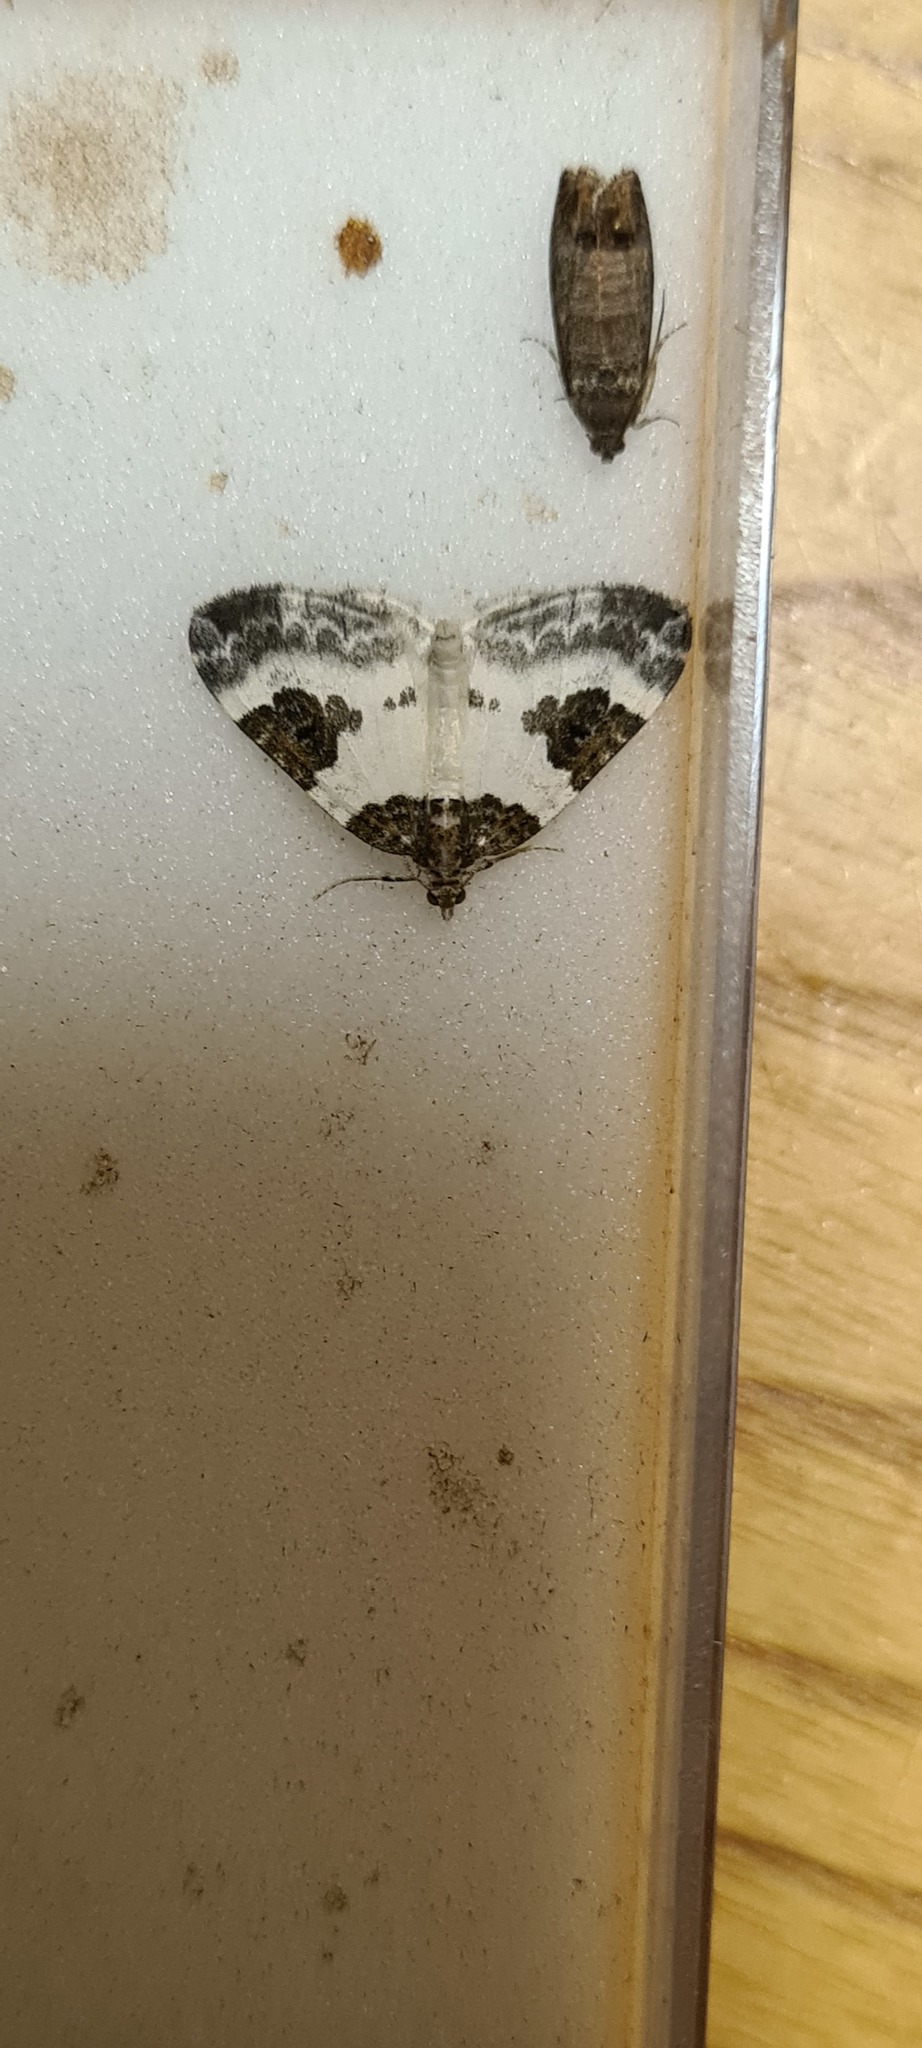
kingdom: Animalia
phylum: Arthropoda
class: Insecta
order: Lepidoptera
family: Geometridae
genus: Plemyria
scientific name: Plemyria rubiginata
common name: Blue-bordered carpet
